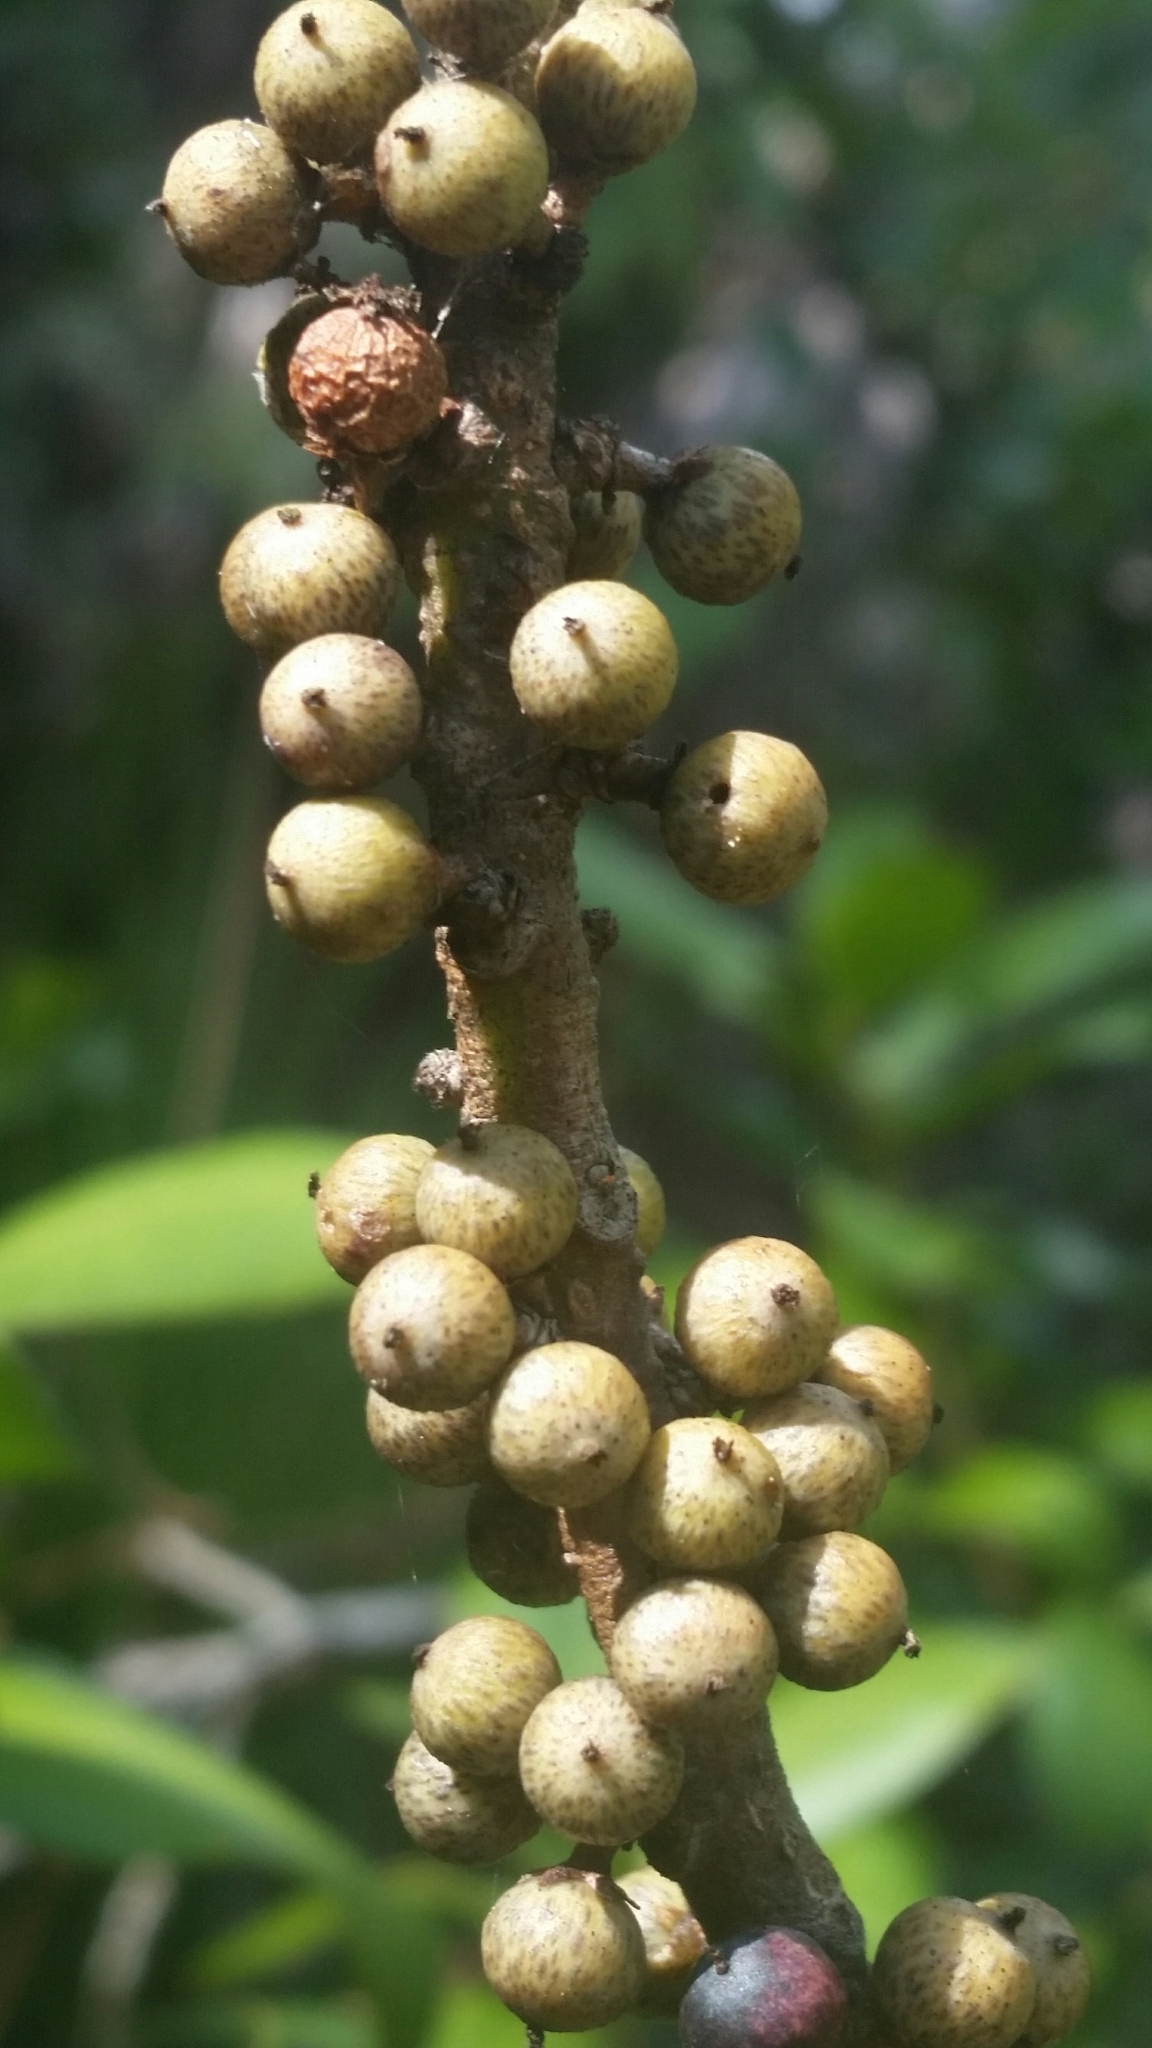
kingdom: Plantae
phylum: Tracheophyta
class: Magnoliopsida
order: Ericales
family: Primulaceae
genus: Myrsine
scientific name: Myrsine floridana
